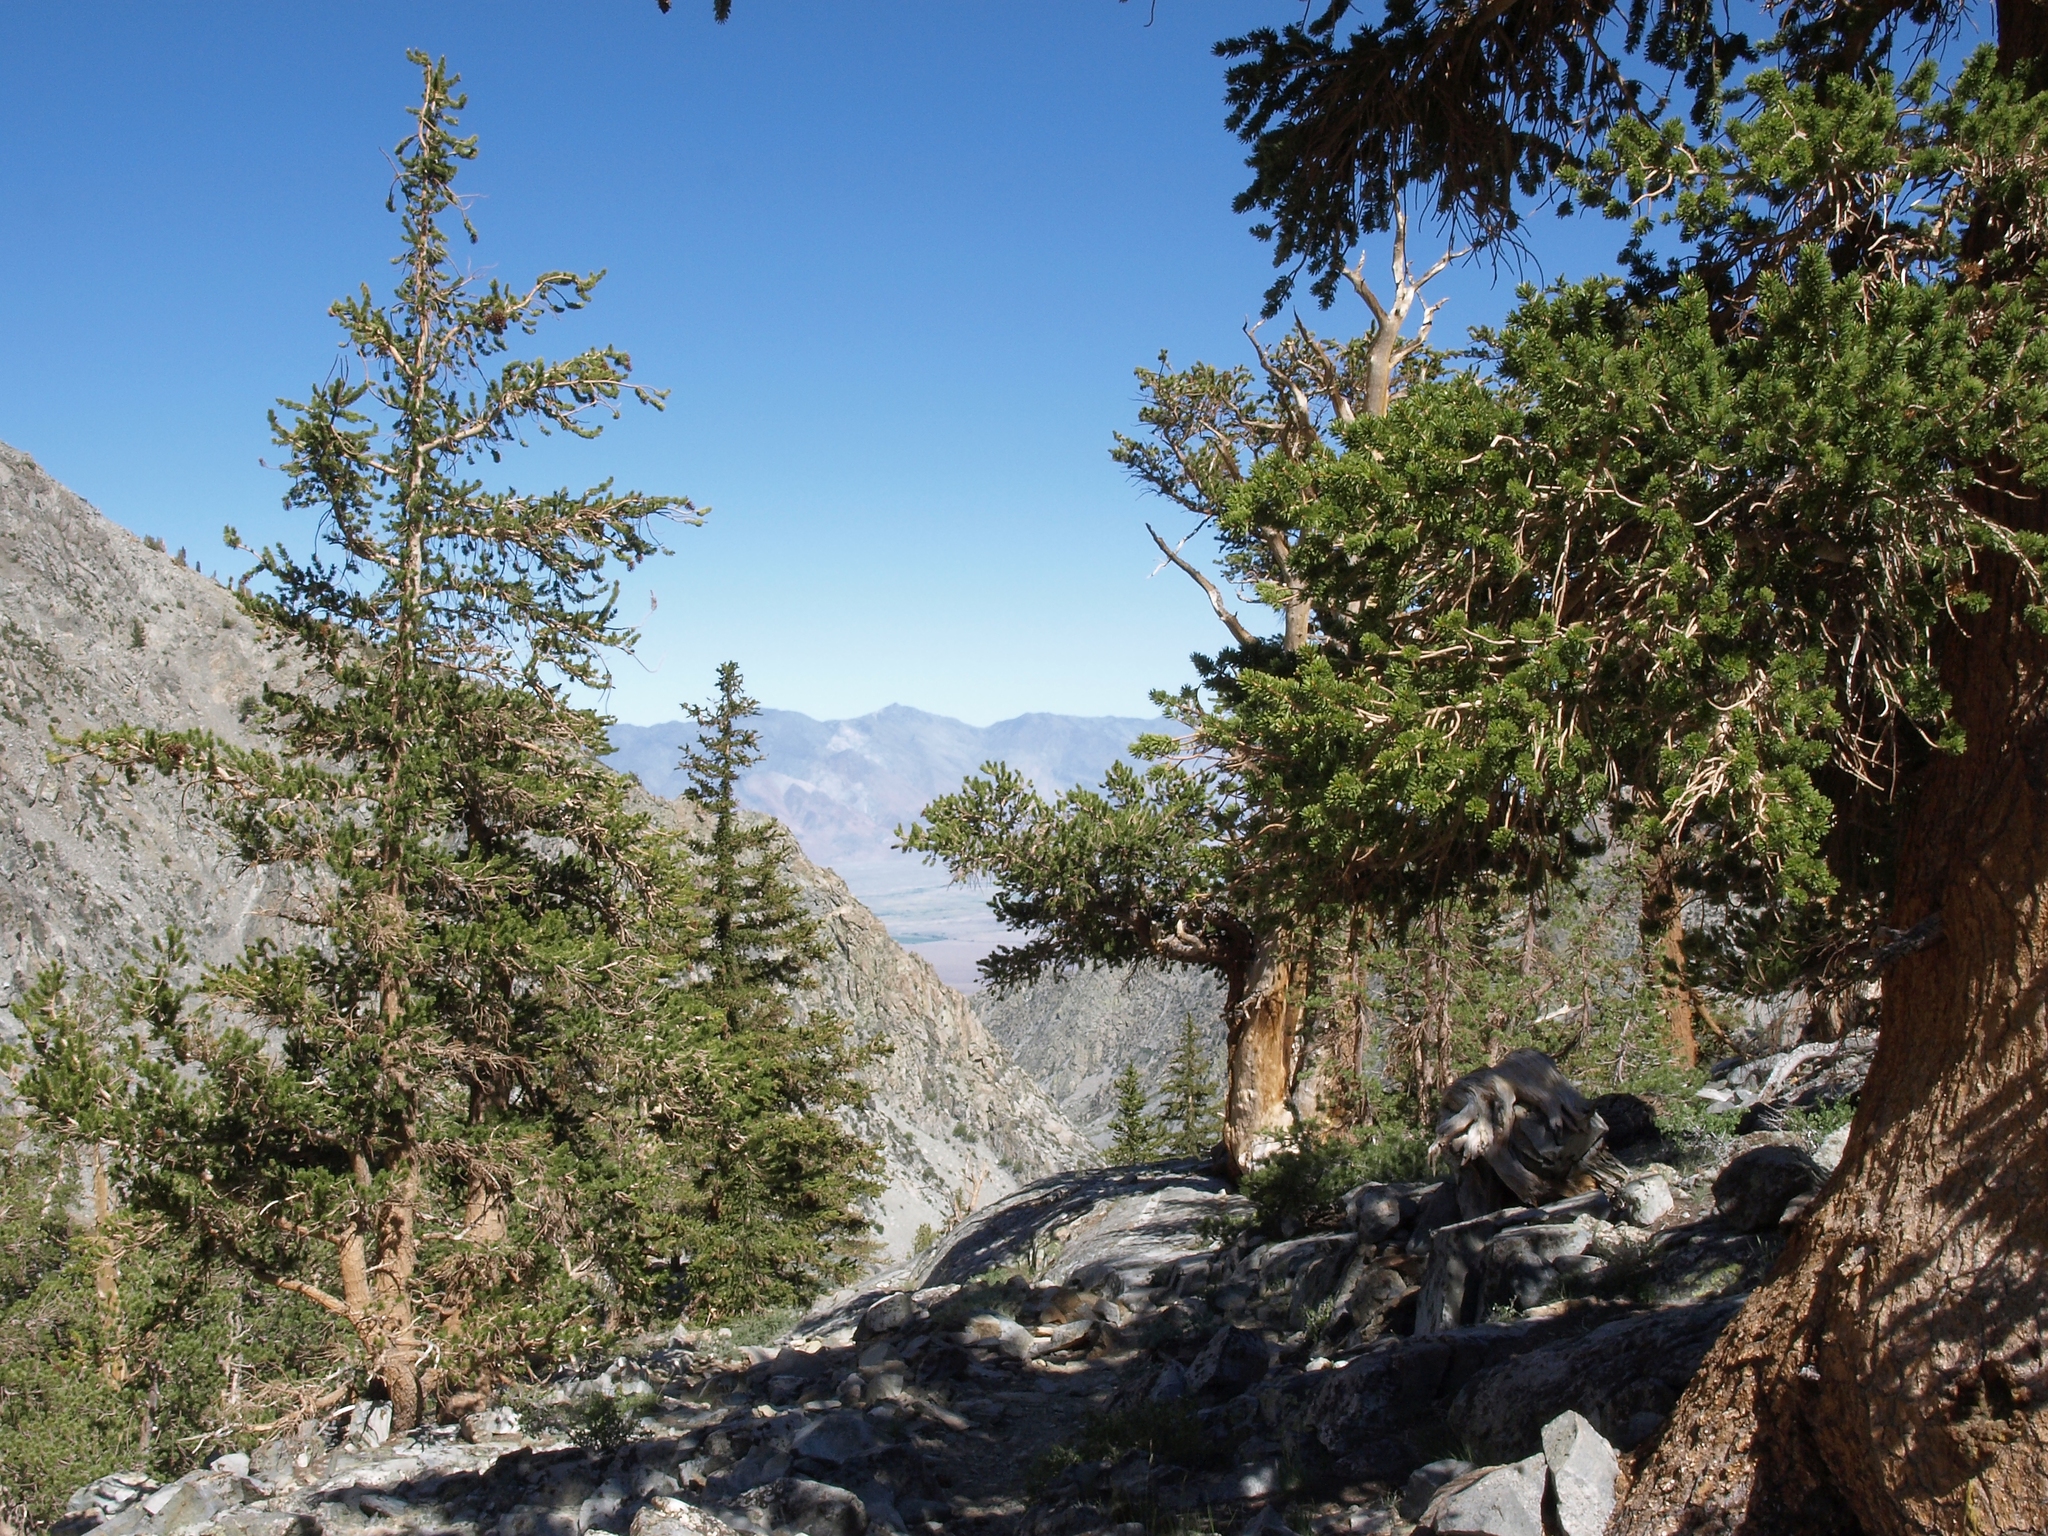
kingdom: Plantae
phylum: Tracheophyta
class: Pinopsida
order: Pinales
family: Pinaceae
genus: Pinus
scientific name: Pinus balfouriana
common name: Foxtail pine
